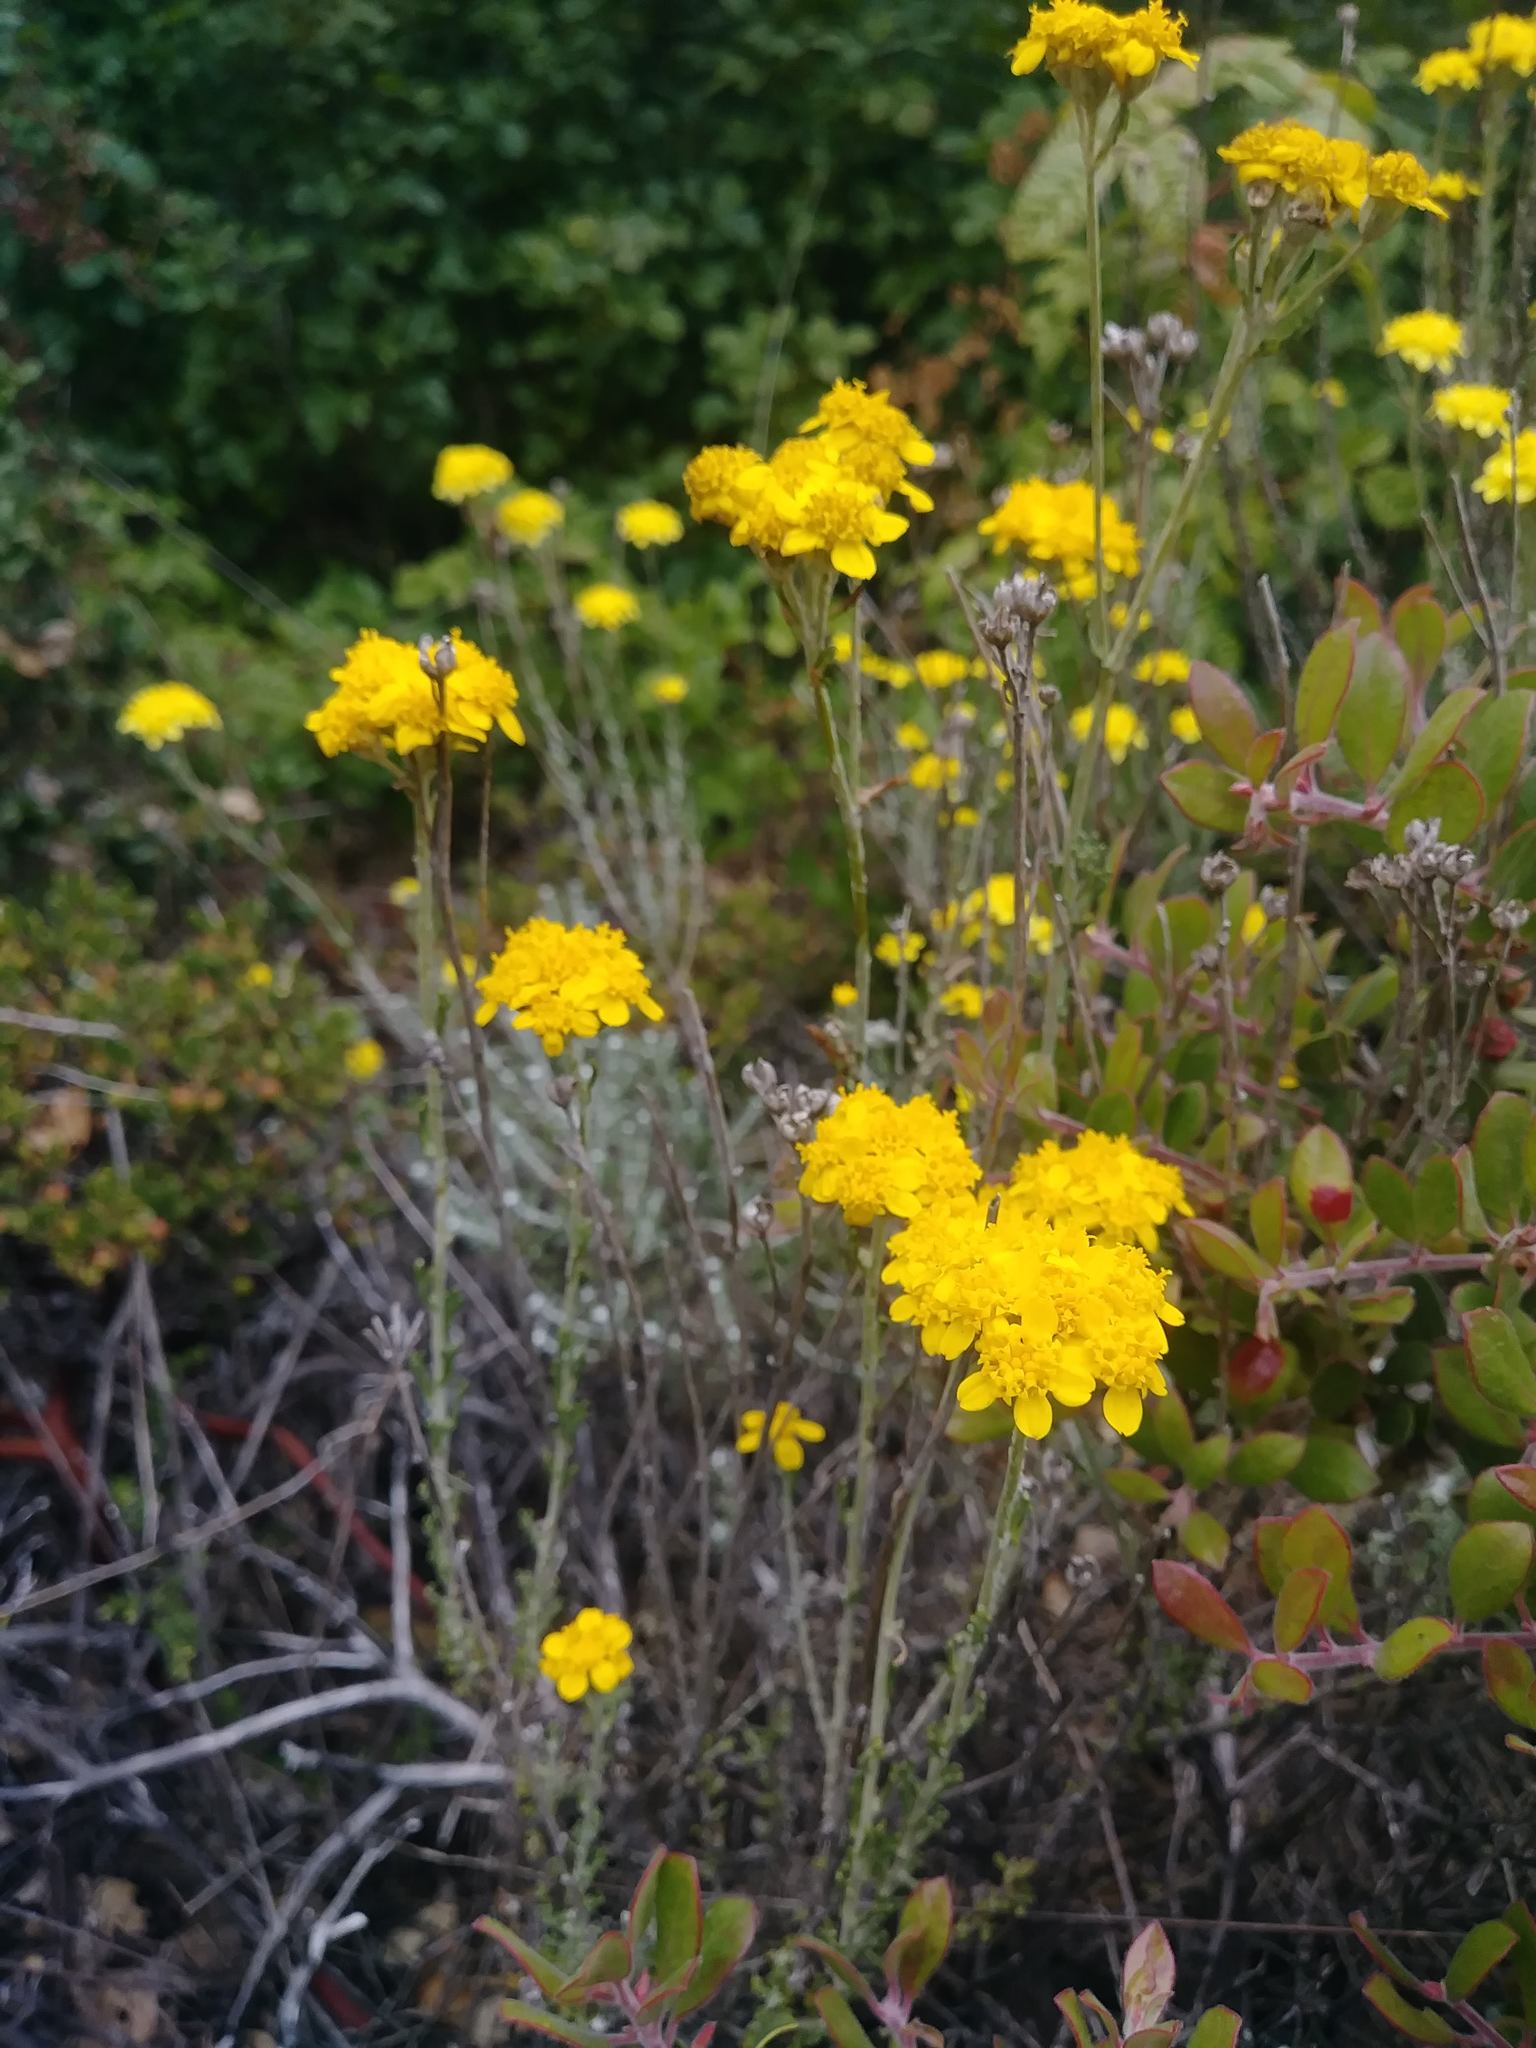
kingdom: Plantae
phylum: Tracheophyta
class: Magnoliopsida
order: Asterales
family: Asteraceae
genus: Eriophyllum
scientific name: Eriophyllum confertiflorum
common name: Golden-yarrow
